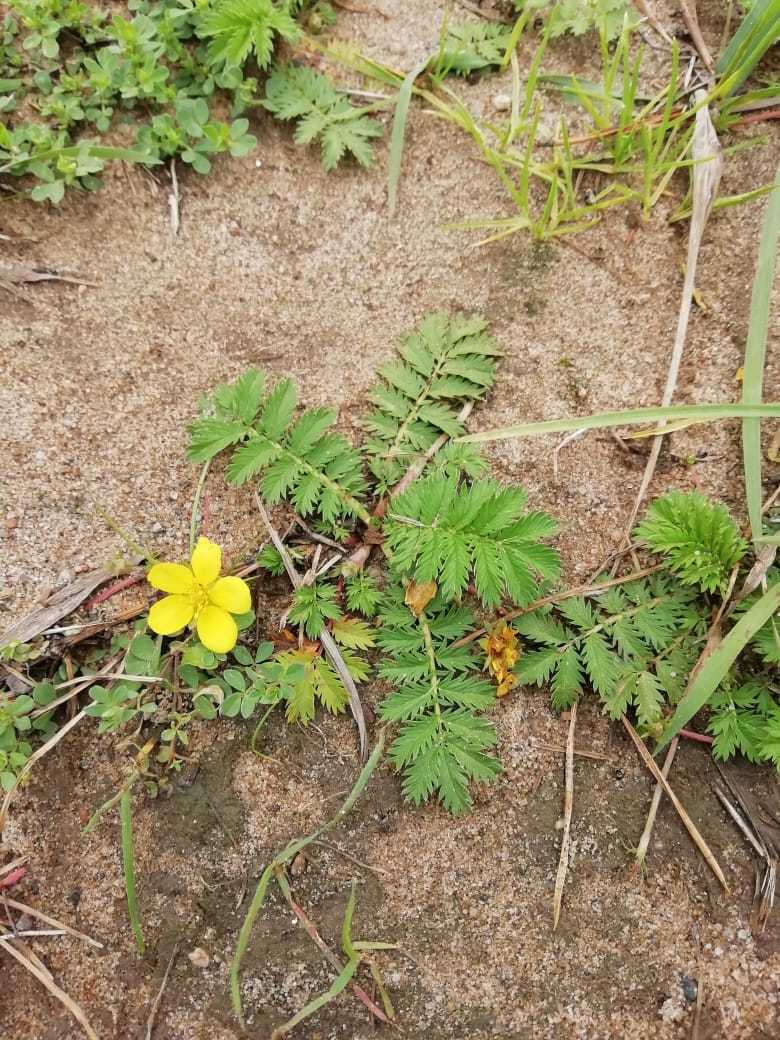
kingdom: Plantae
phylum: Tracheophyta
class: Magnoliopsida
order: Rosales
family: Rosaceae
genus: Argentina
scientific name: Argentina anserina
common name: Common silverweed
